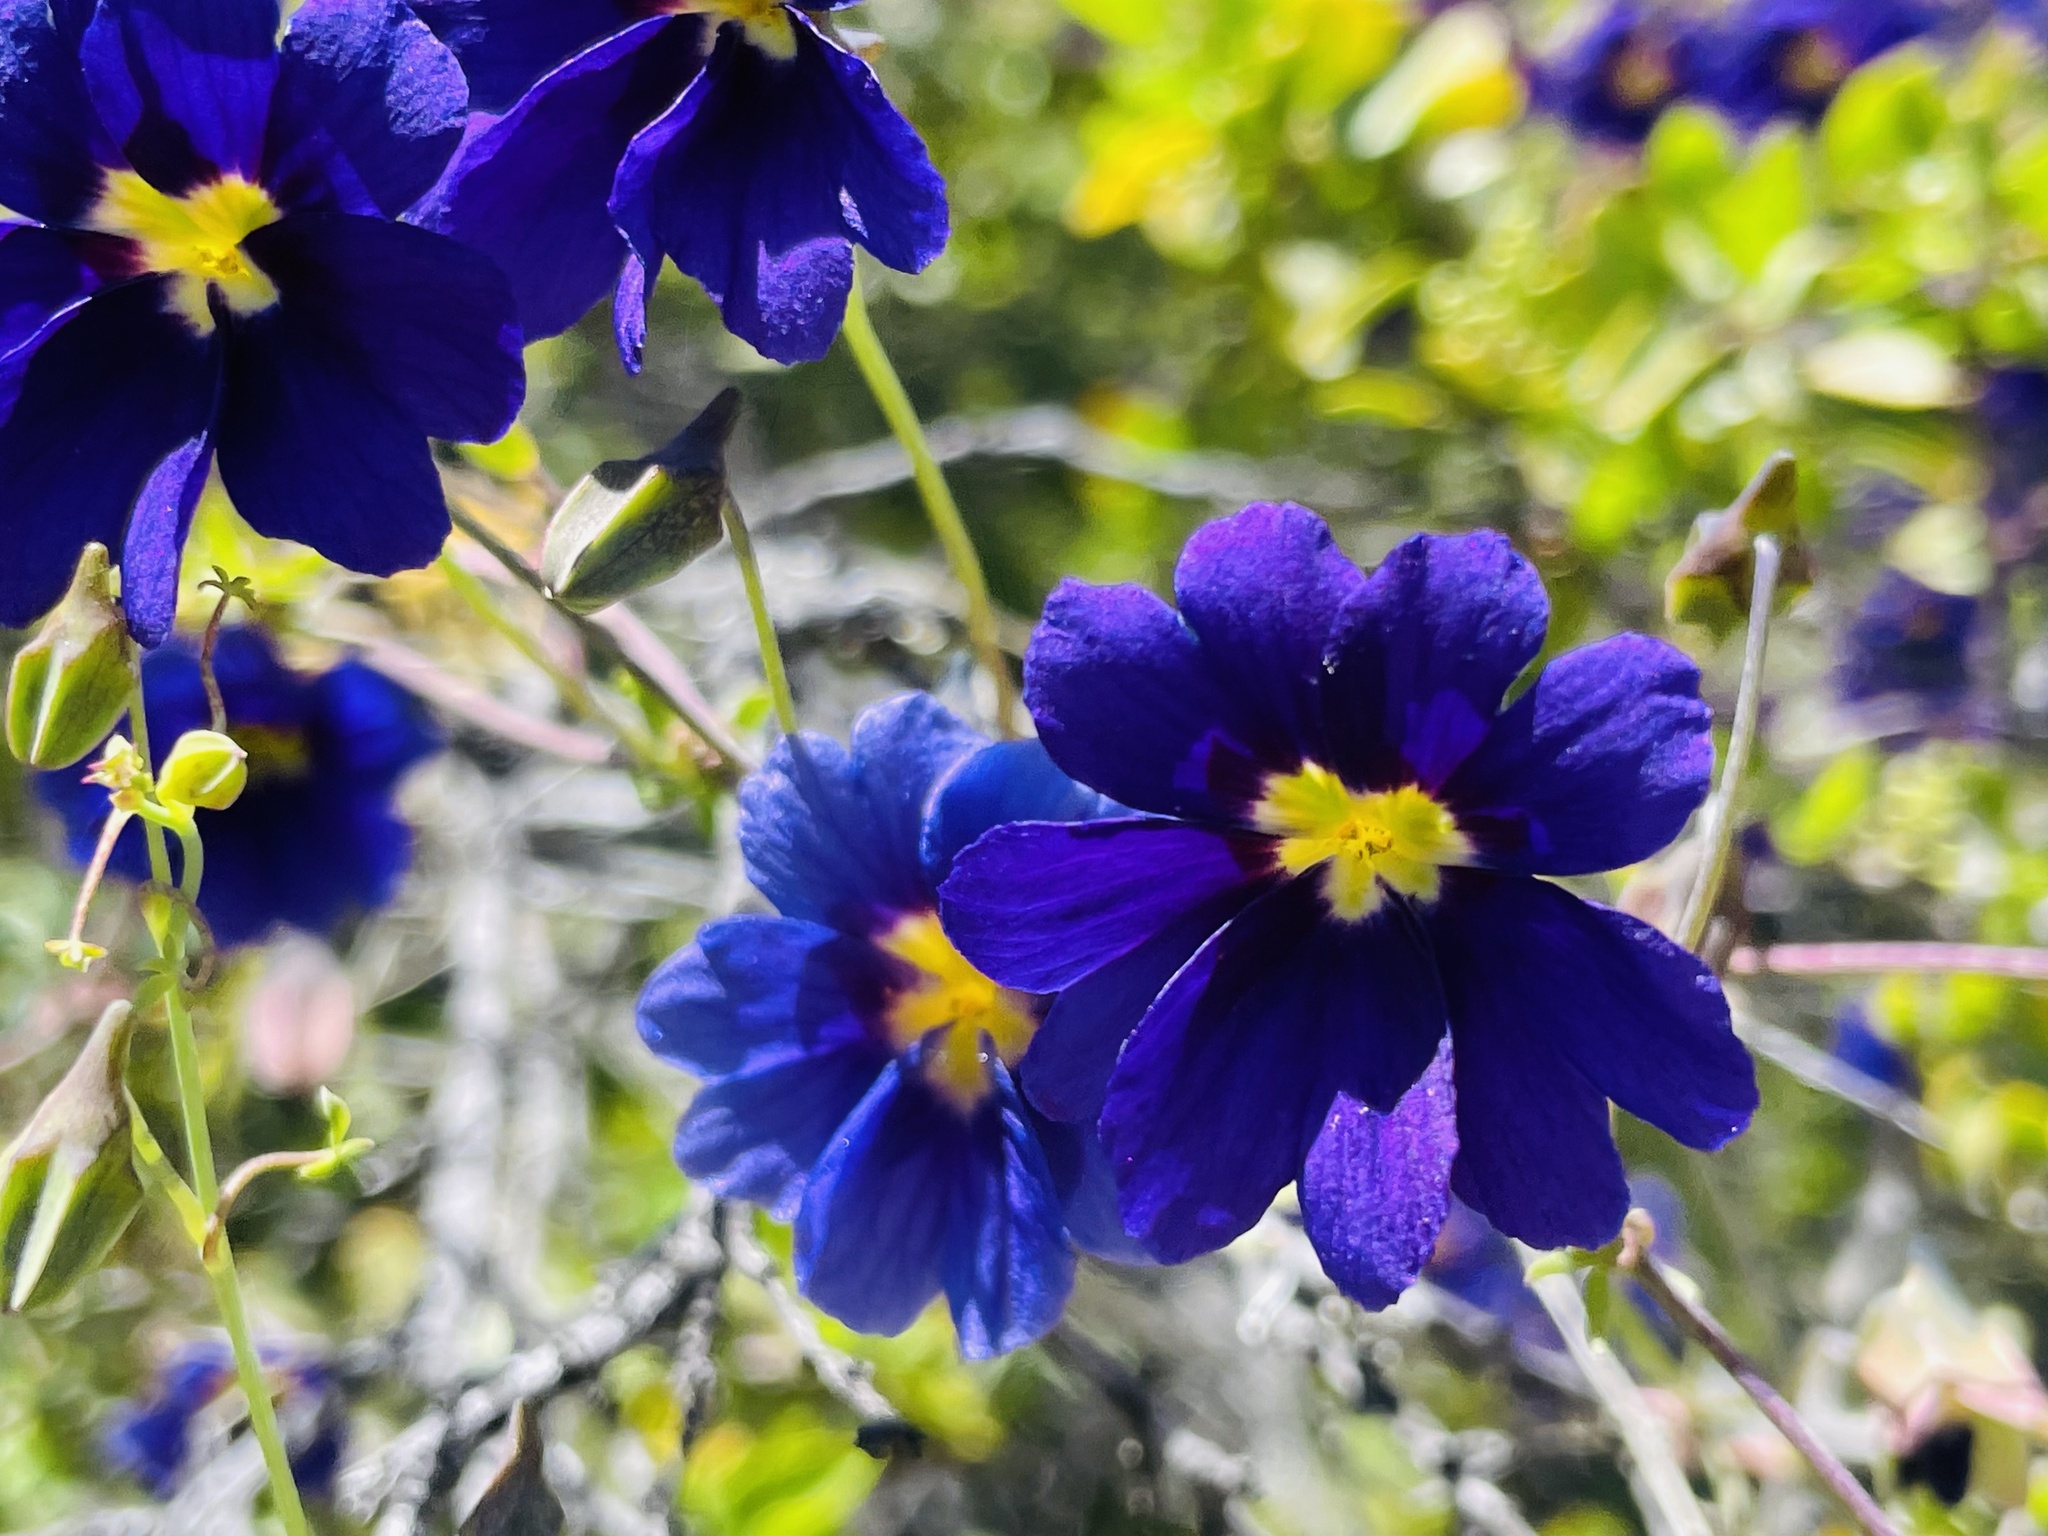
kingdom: Plantae
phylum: Tracheophyta
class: Magnoliopsida
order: Brassicales
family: Tropaeolaceae
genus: Tropaeolum
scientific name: Tropaeolum azureum
